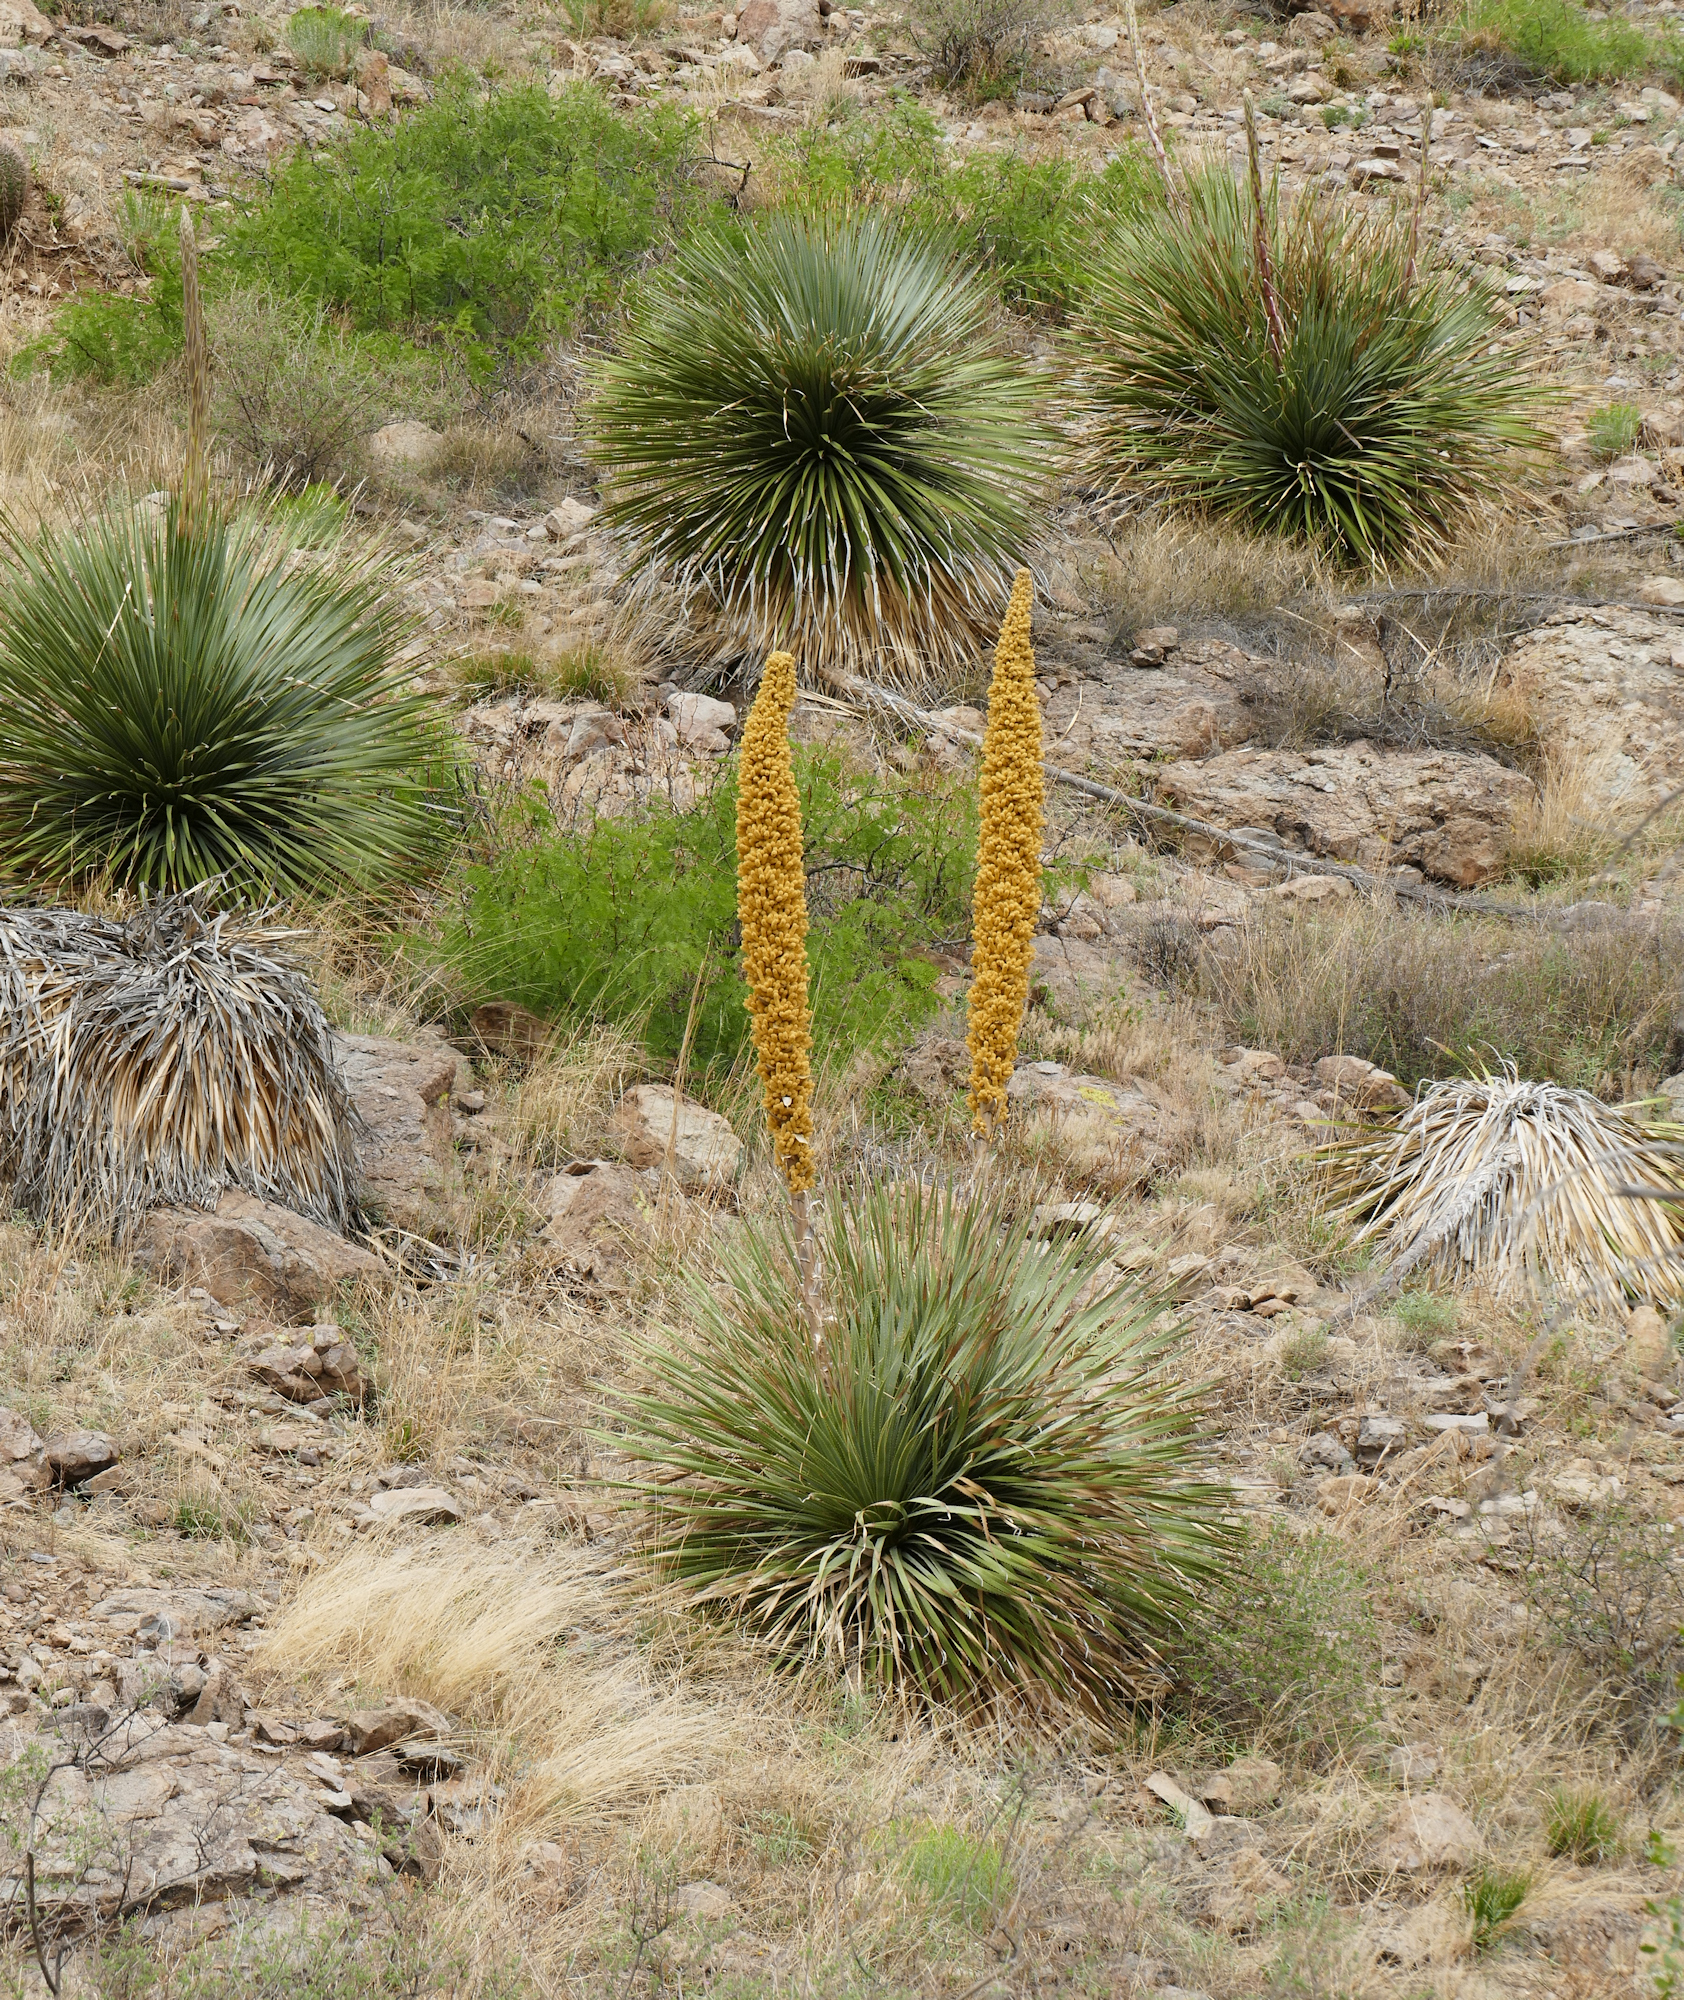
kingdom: Plantae
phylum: Tracheophyta
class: Liliopsida
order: Asparagales
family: Asparagaceae
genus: Dasylirion
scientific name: Dasylirion wheeleri
